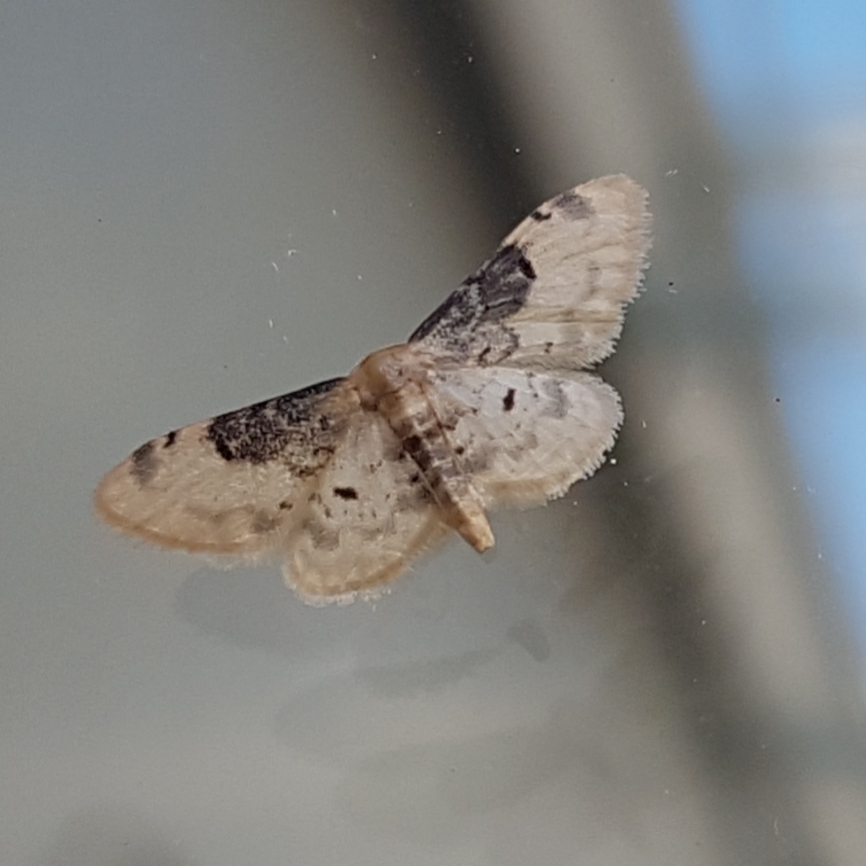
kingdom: Animalia
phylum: Arthropoda
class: Insecta
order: Lepidoptera
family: Geometridae
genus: Idaea
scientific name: Idaea filicata
